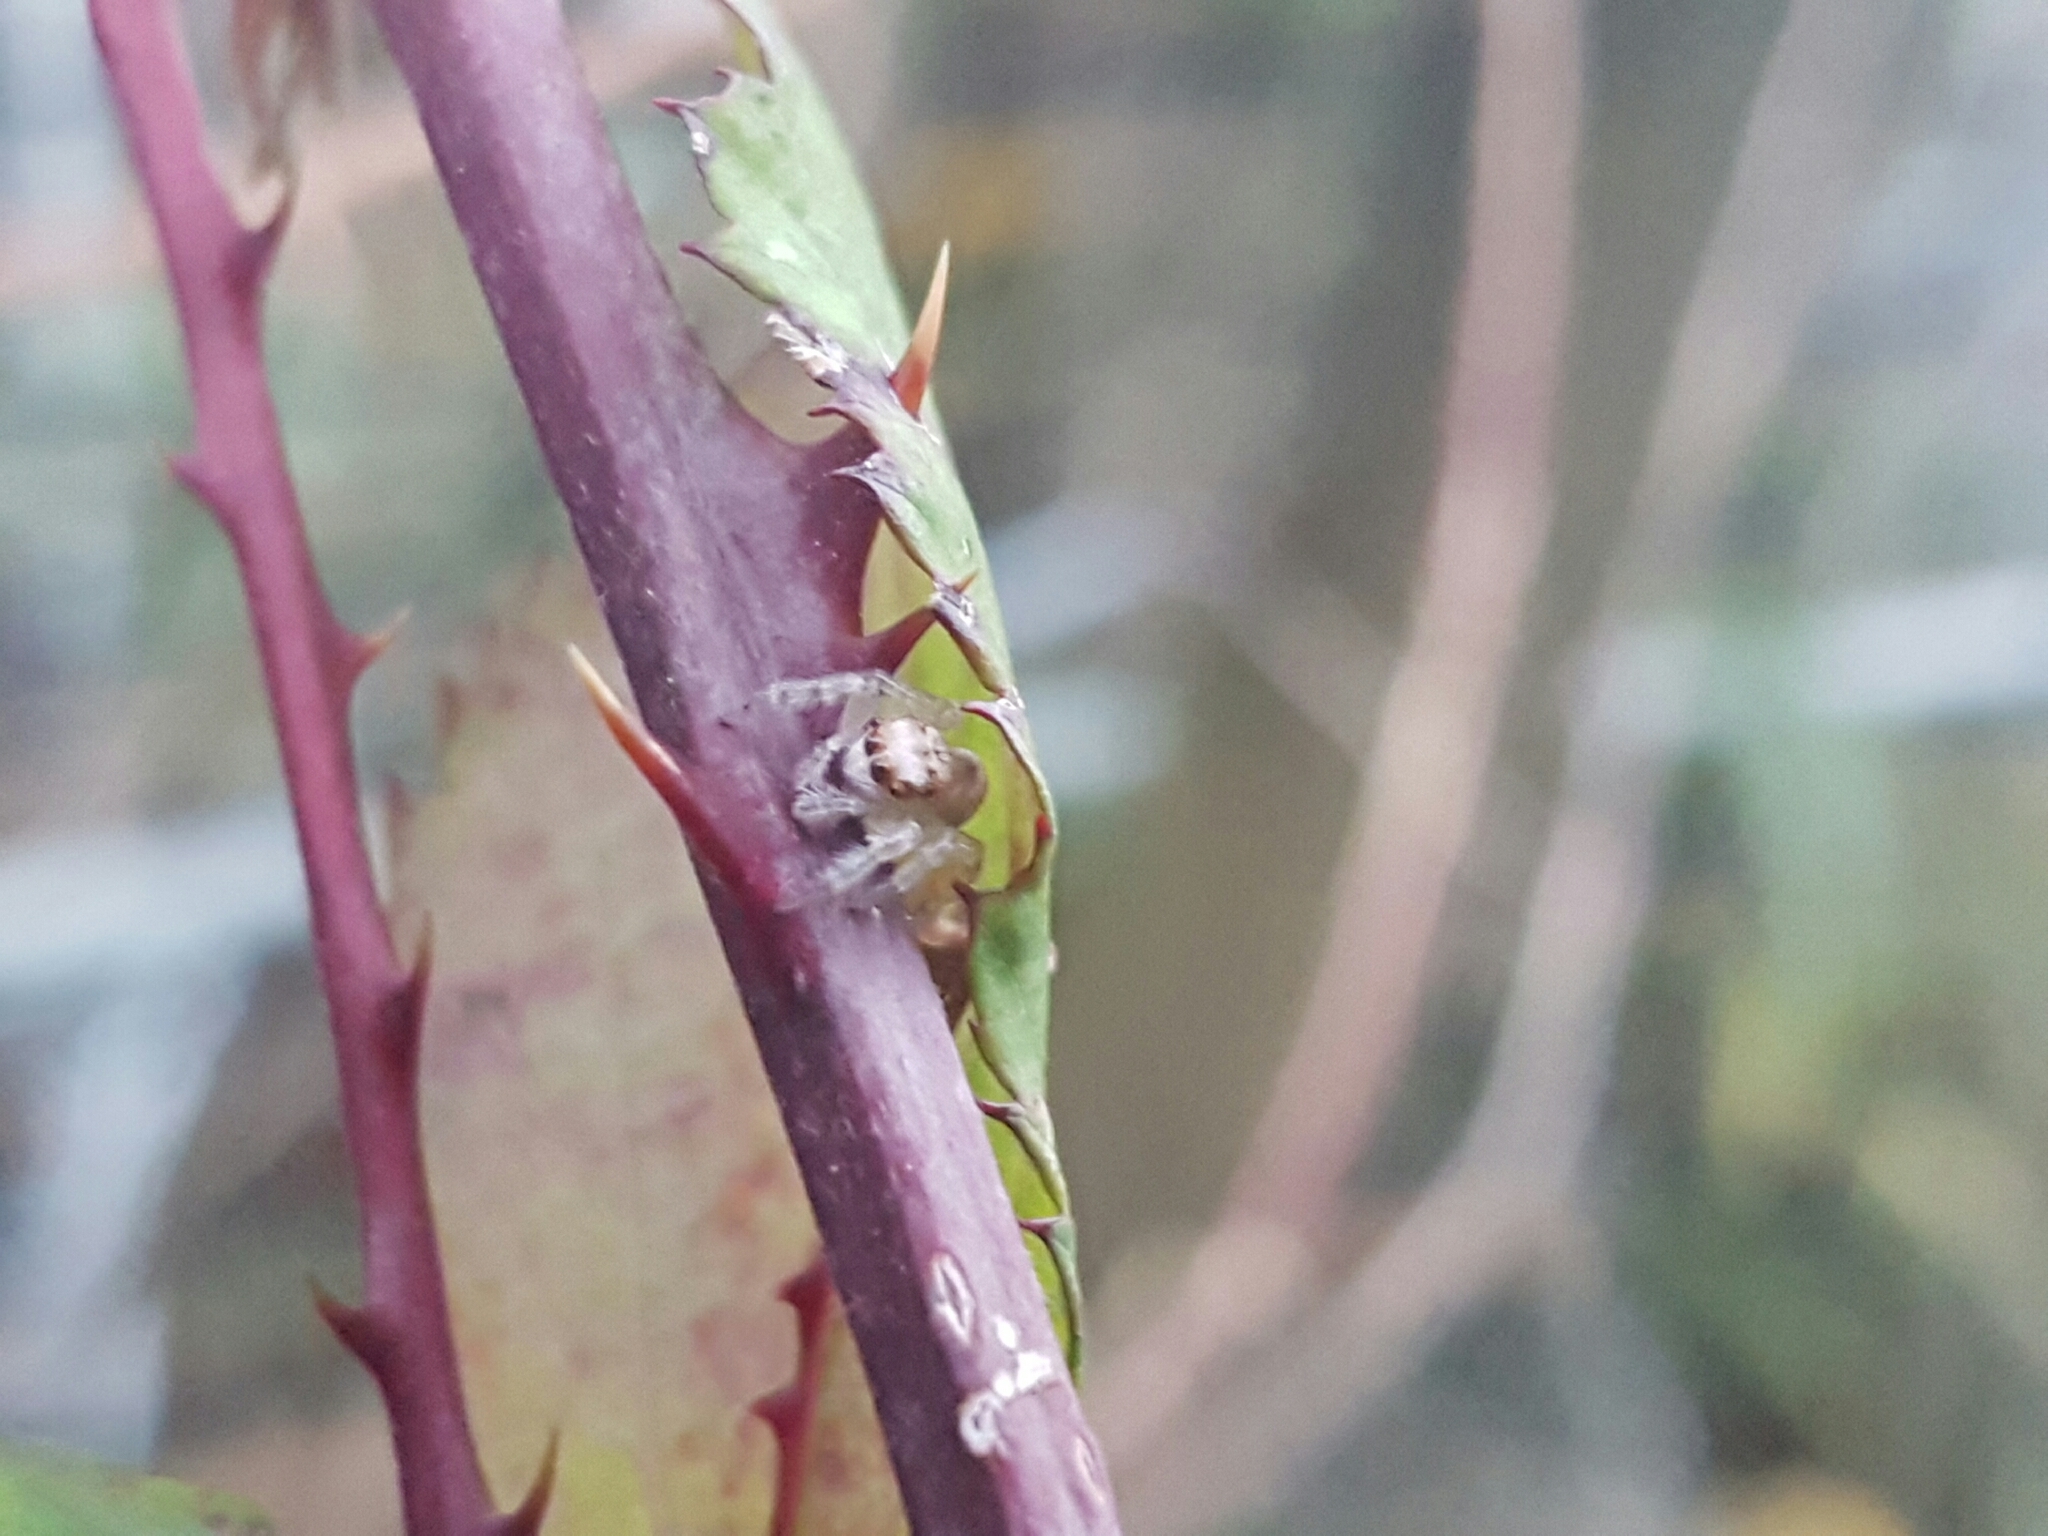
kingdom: Animalia
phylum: Arthropoda
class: Arachnida
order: Araneae
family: Salticidae
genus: Opisthoncus
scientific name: Opisthoncus polyphemus
